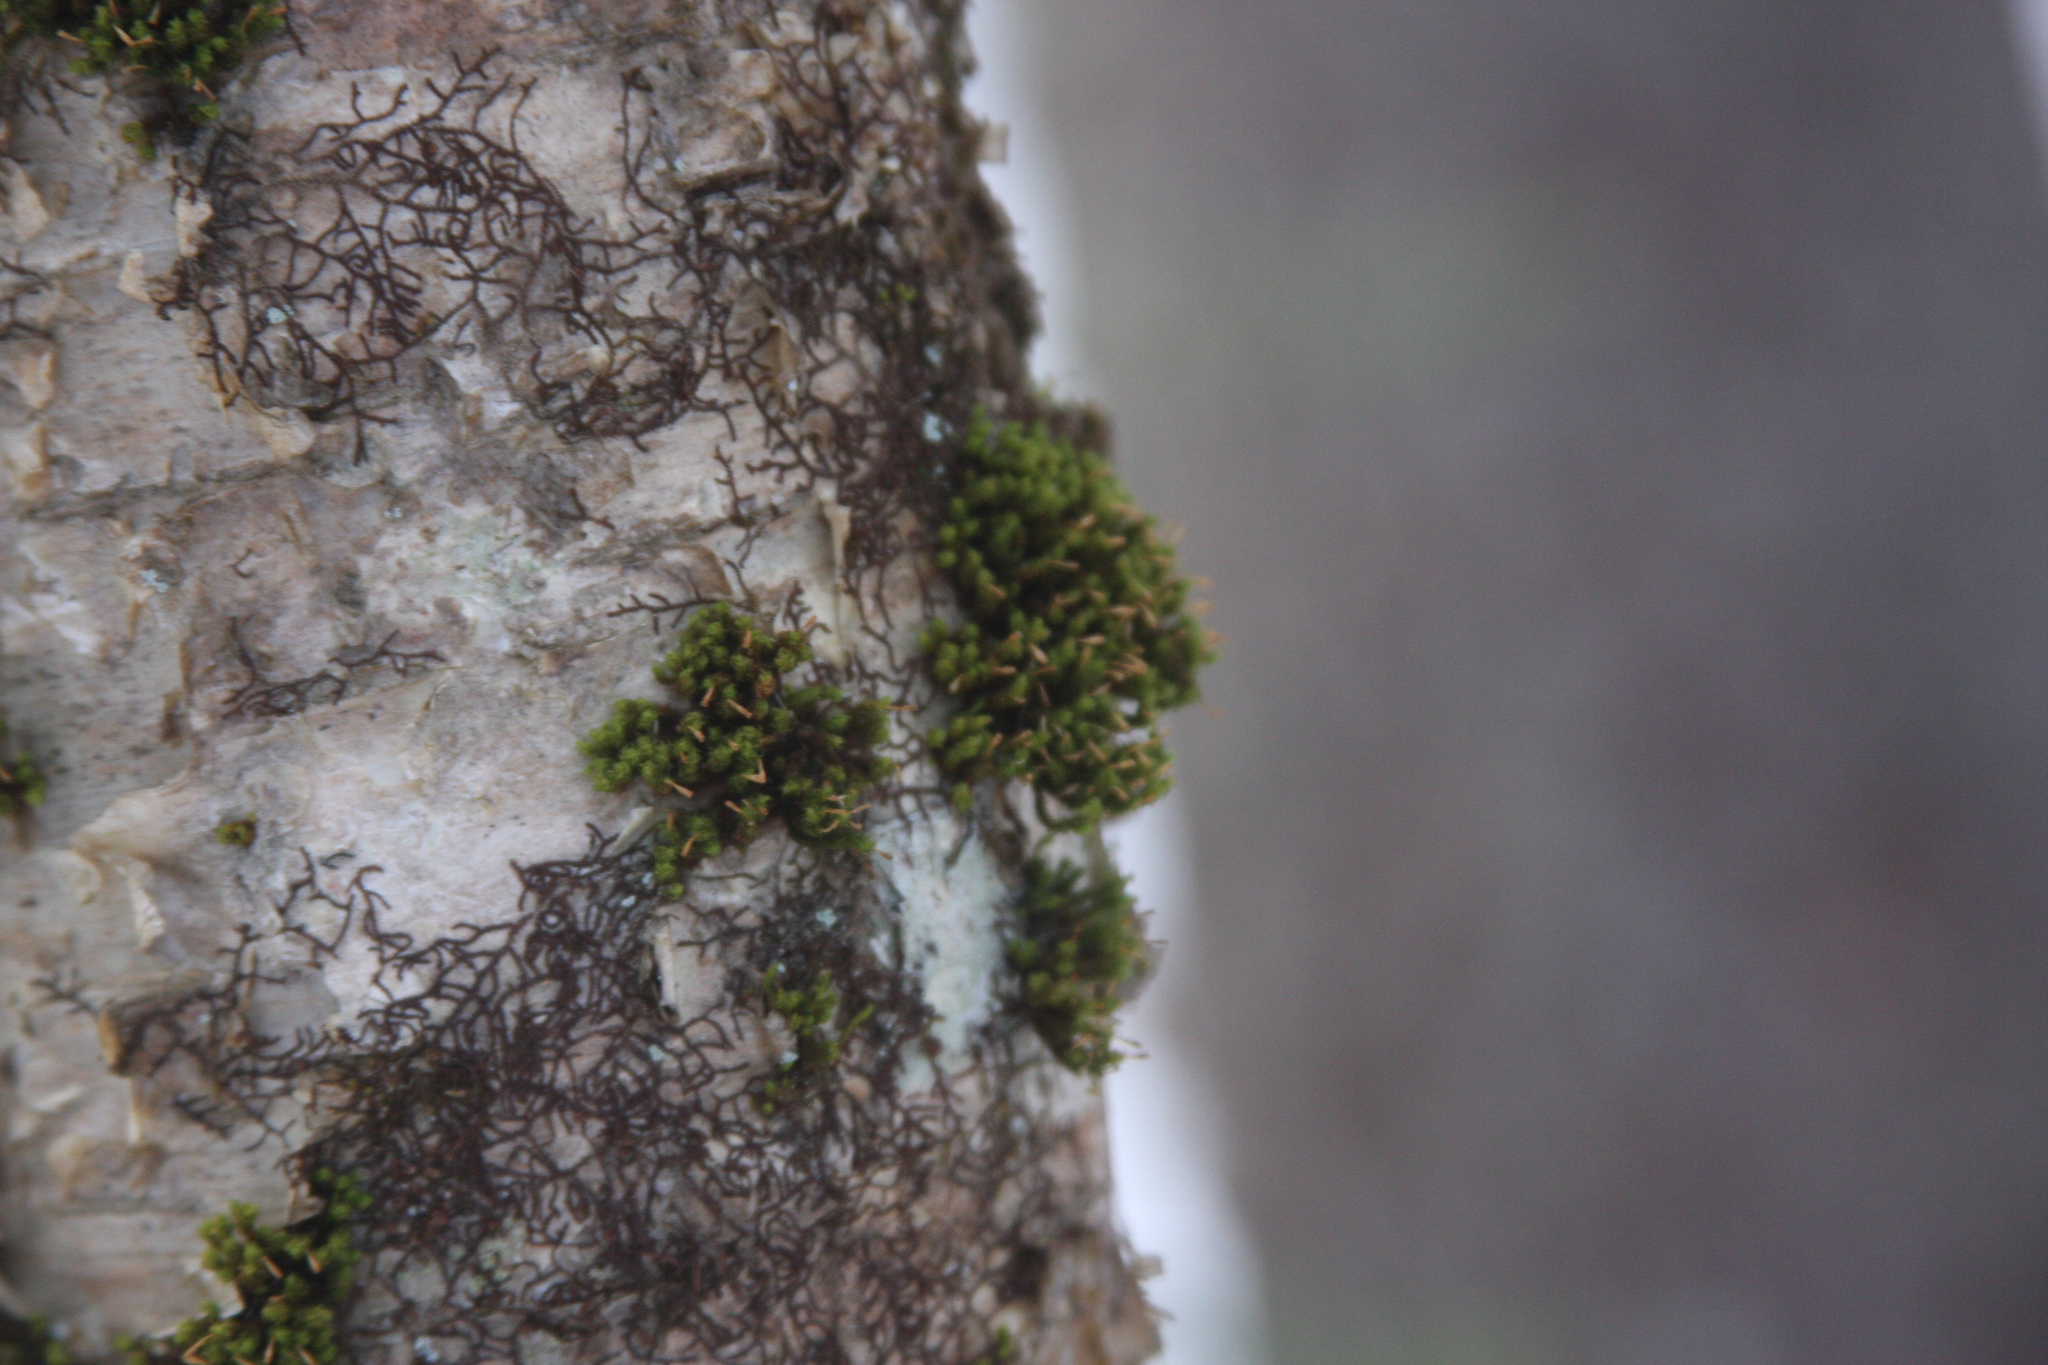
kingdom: Plantae
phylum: Bryophyta
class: Bryopsida
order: Orthotrichales
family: Orthotrichaceae
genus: Ulota
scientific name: Ulota crispa
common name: Crisped pincushion moss
